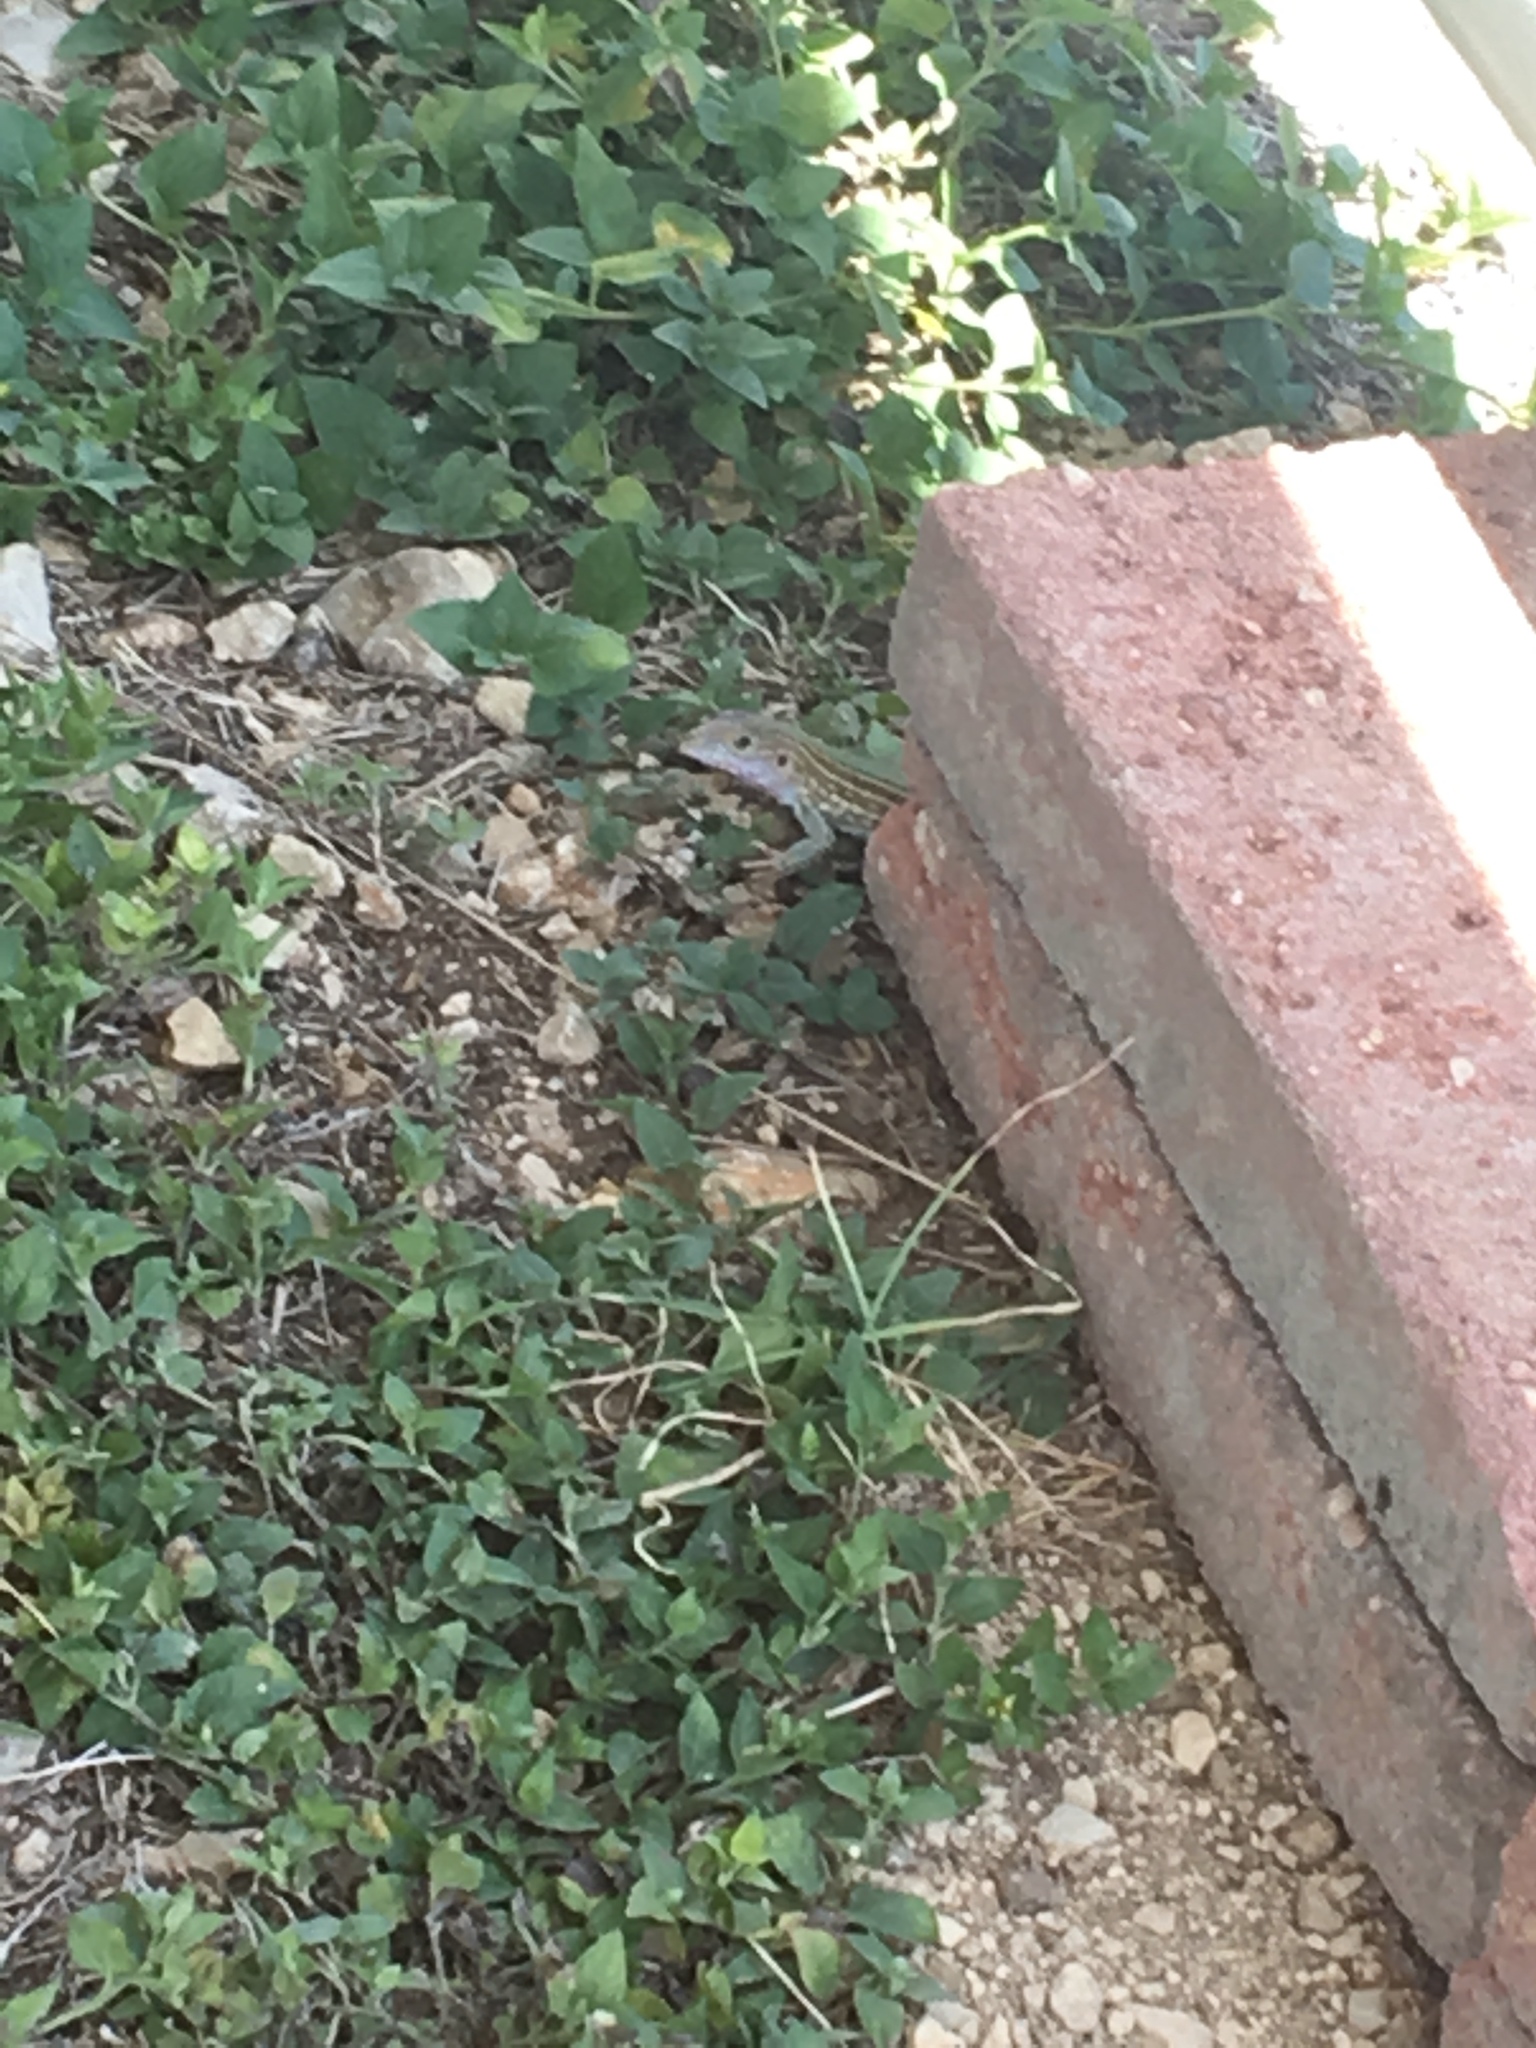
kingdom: Animalia
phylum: Chordata
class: Squamata
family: Teiidae
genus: Aspidoscelis
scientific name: Aspidoscelis gularis
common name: Eastern spotted whiptail
